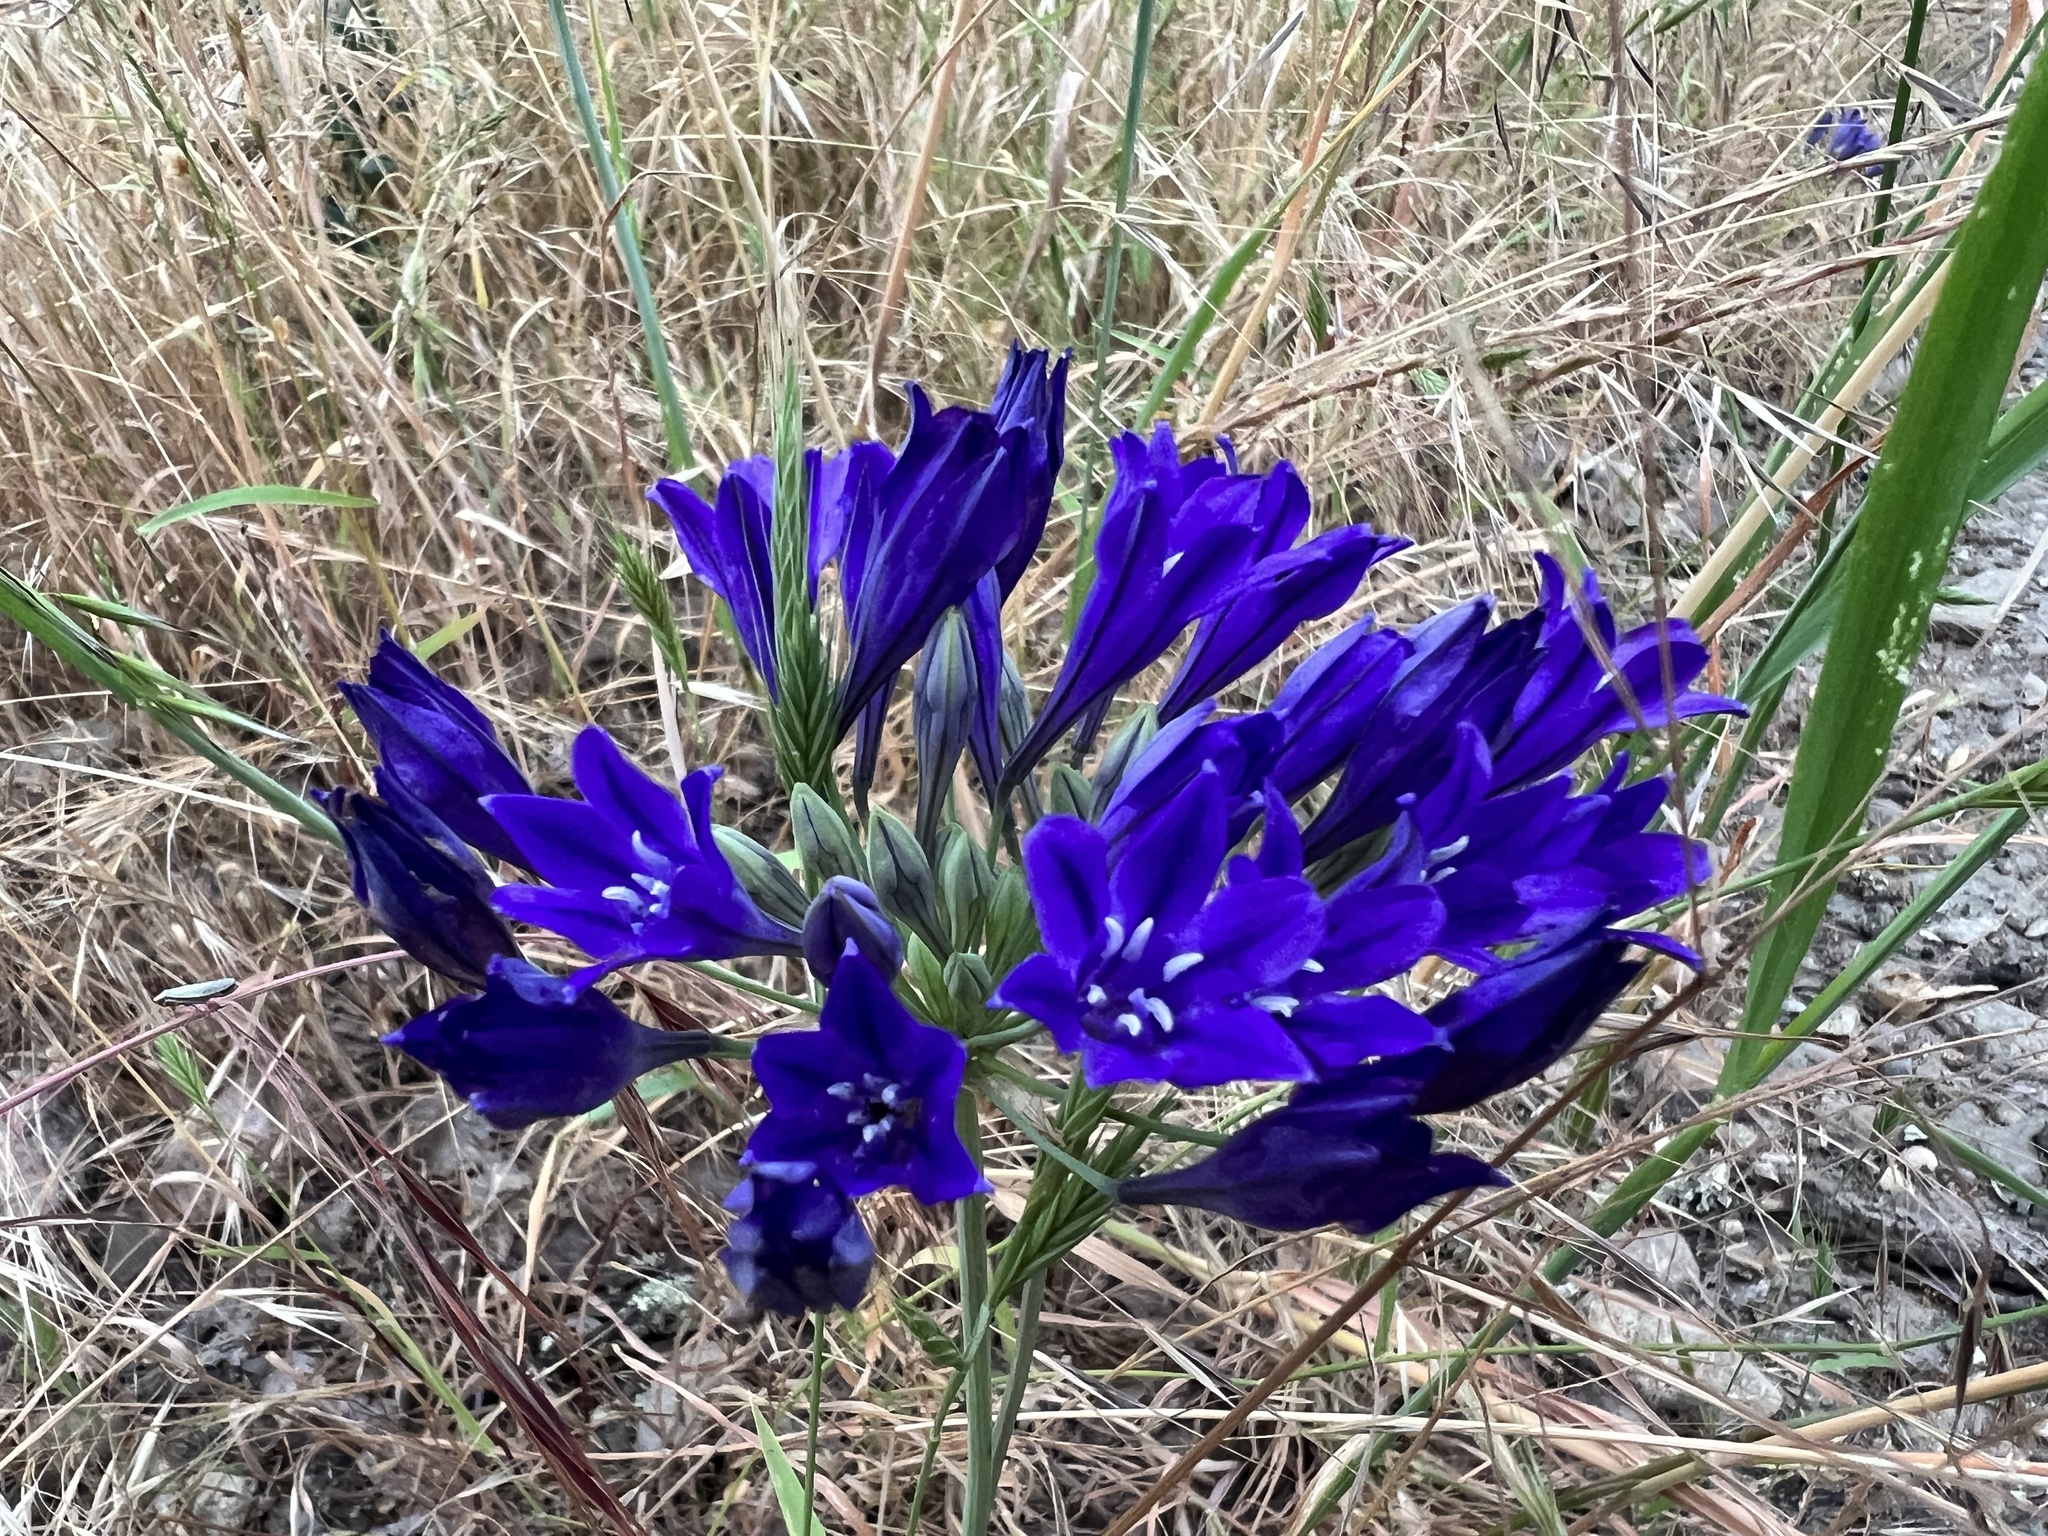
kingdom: Plantae
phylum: Tracheophyta
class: Liliopsida
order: Asparagales
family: Asparagaceae
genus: Triteleia
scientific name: Triteleia laxa
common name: Triplet-lily
